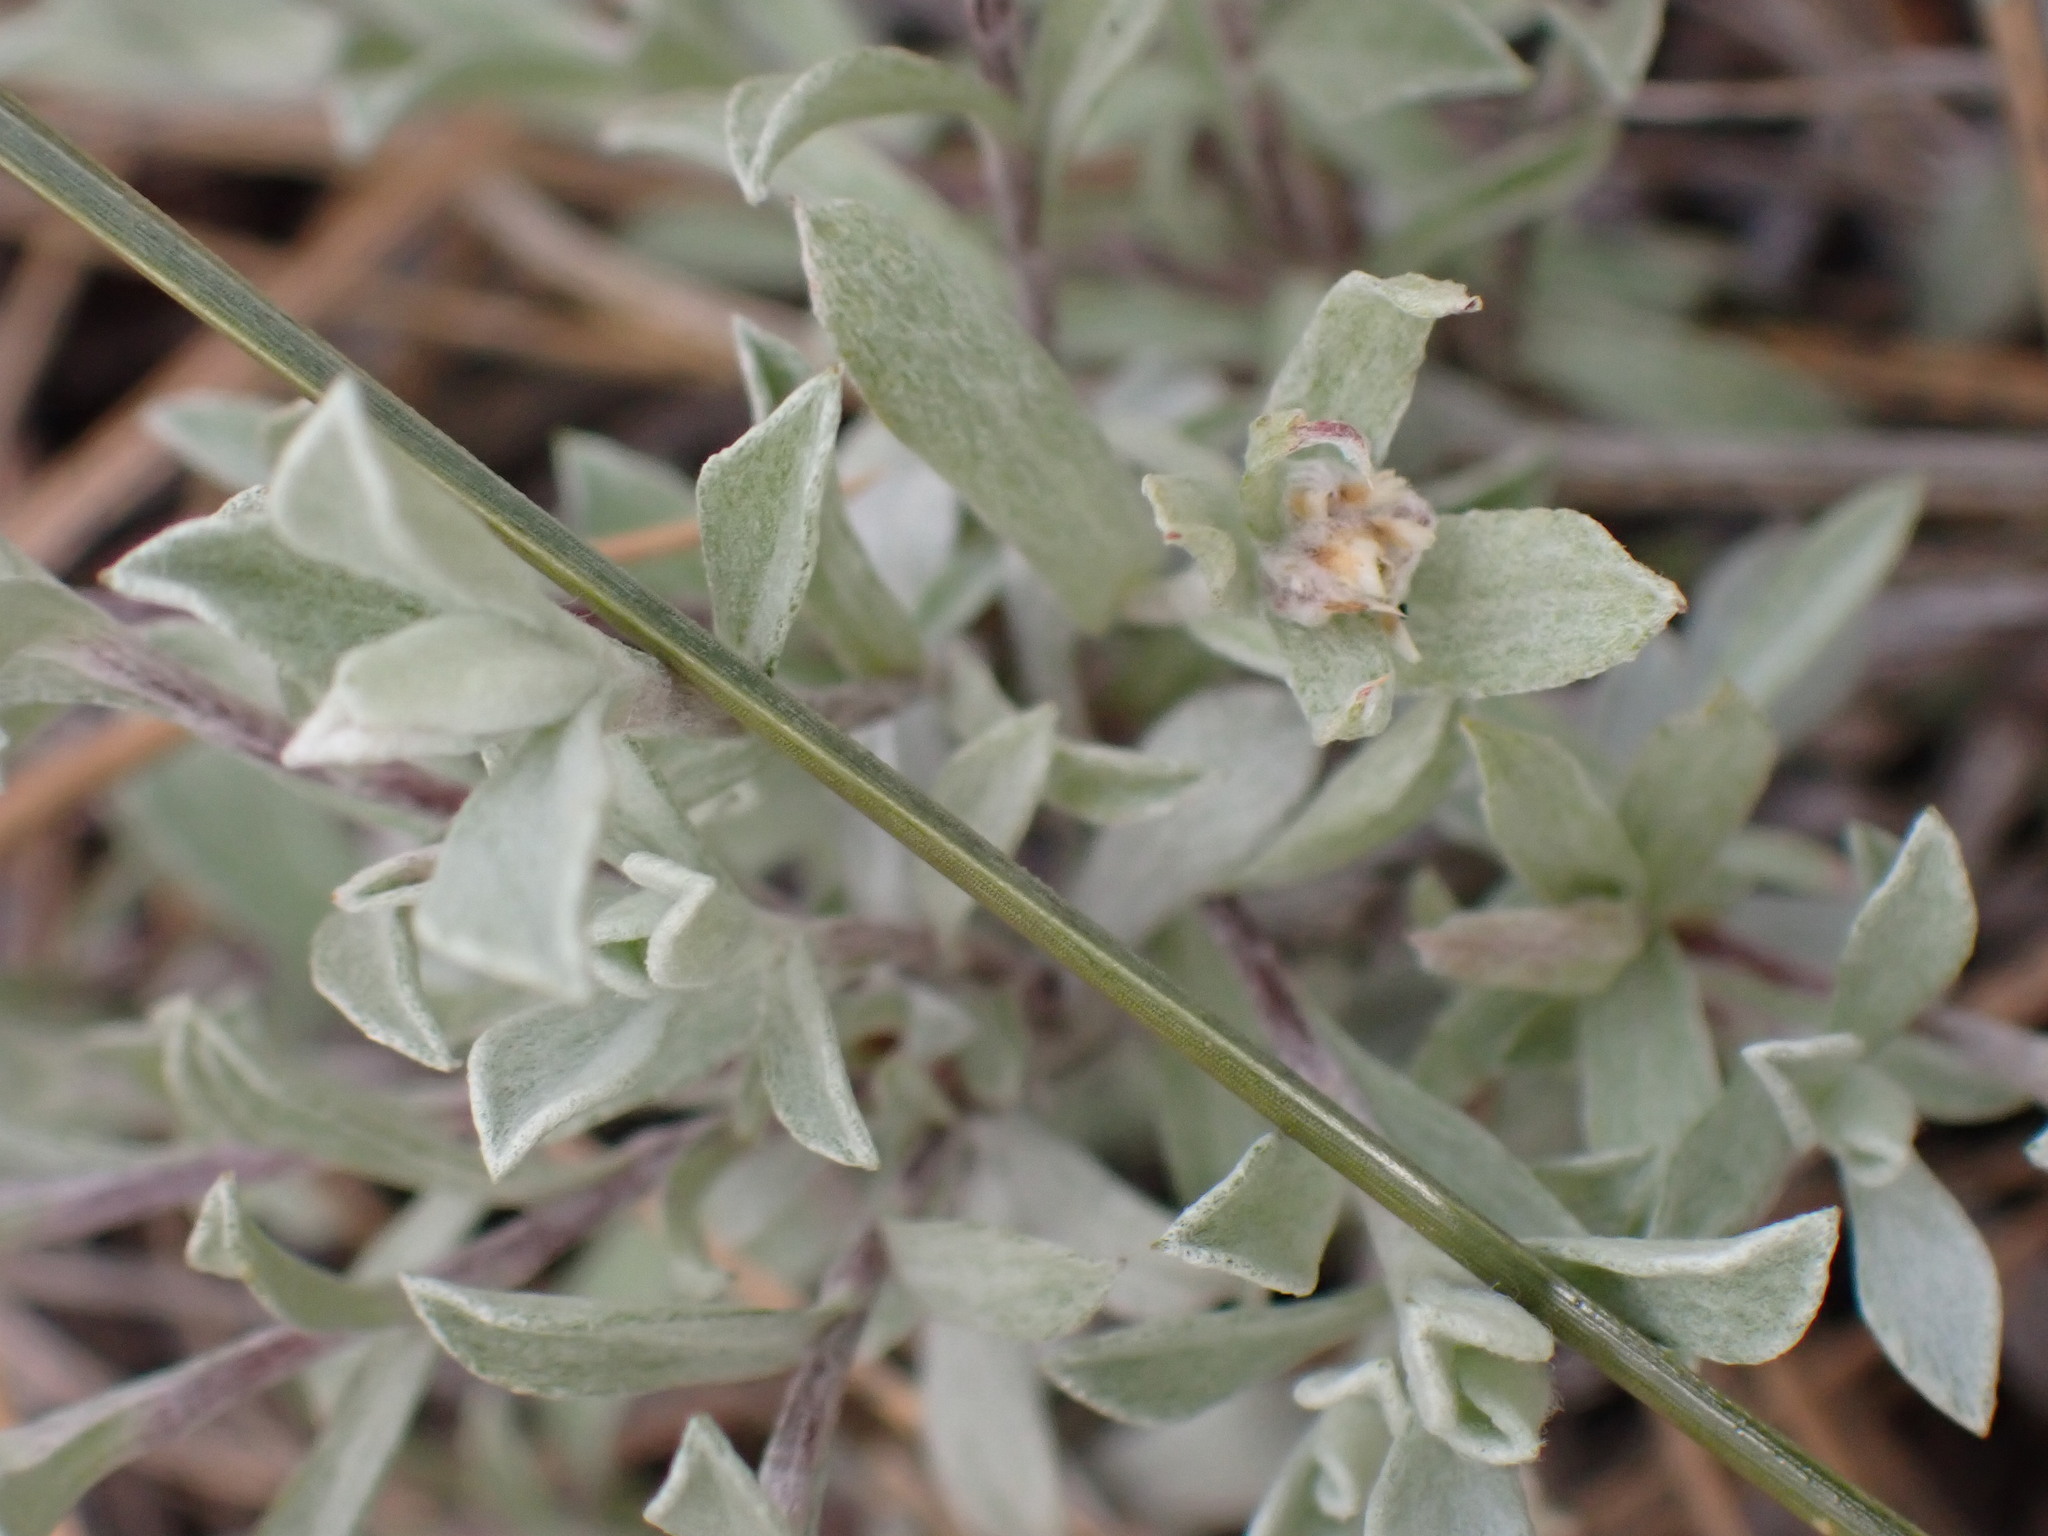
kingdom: Plantae
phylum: Tracheophyta
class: Magnoliopsida
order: Asterales
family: Asteraceae
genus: Antennaria
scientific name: Antennaria umbrinella
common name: Brown pussytoes
